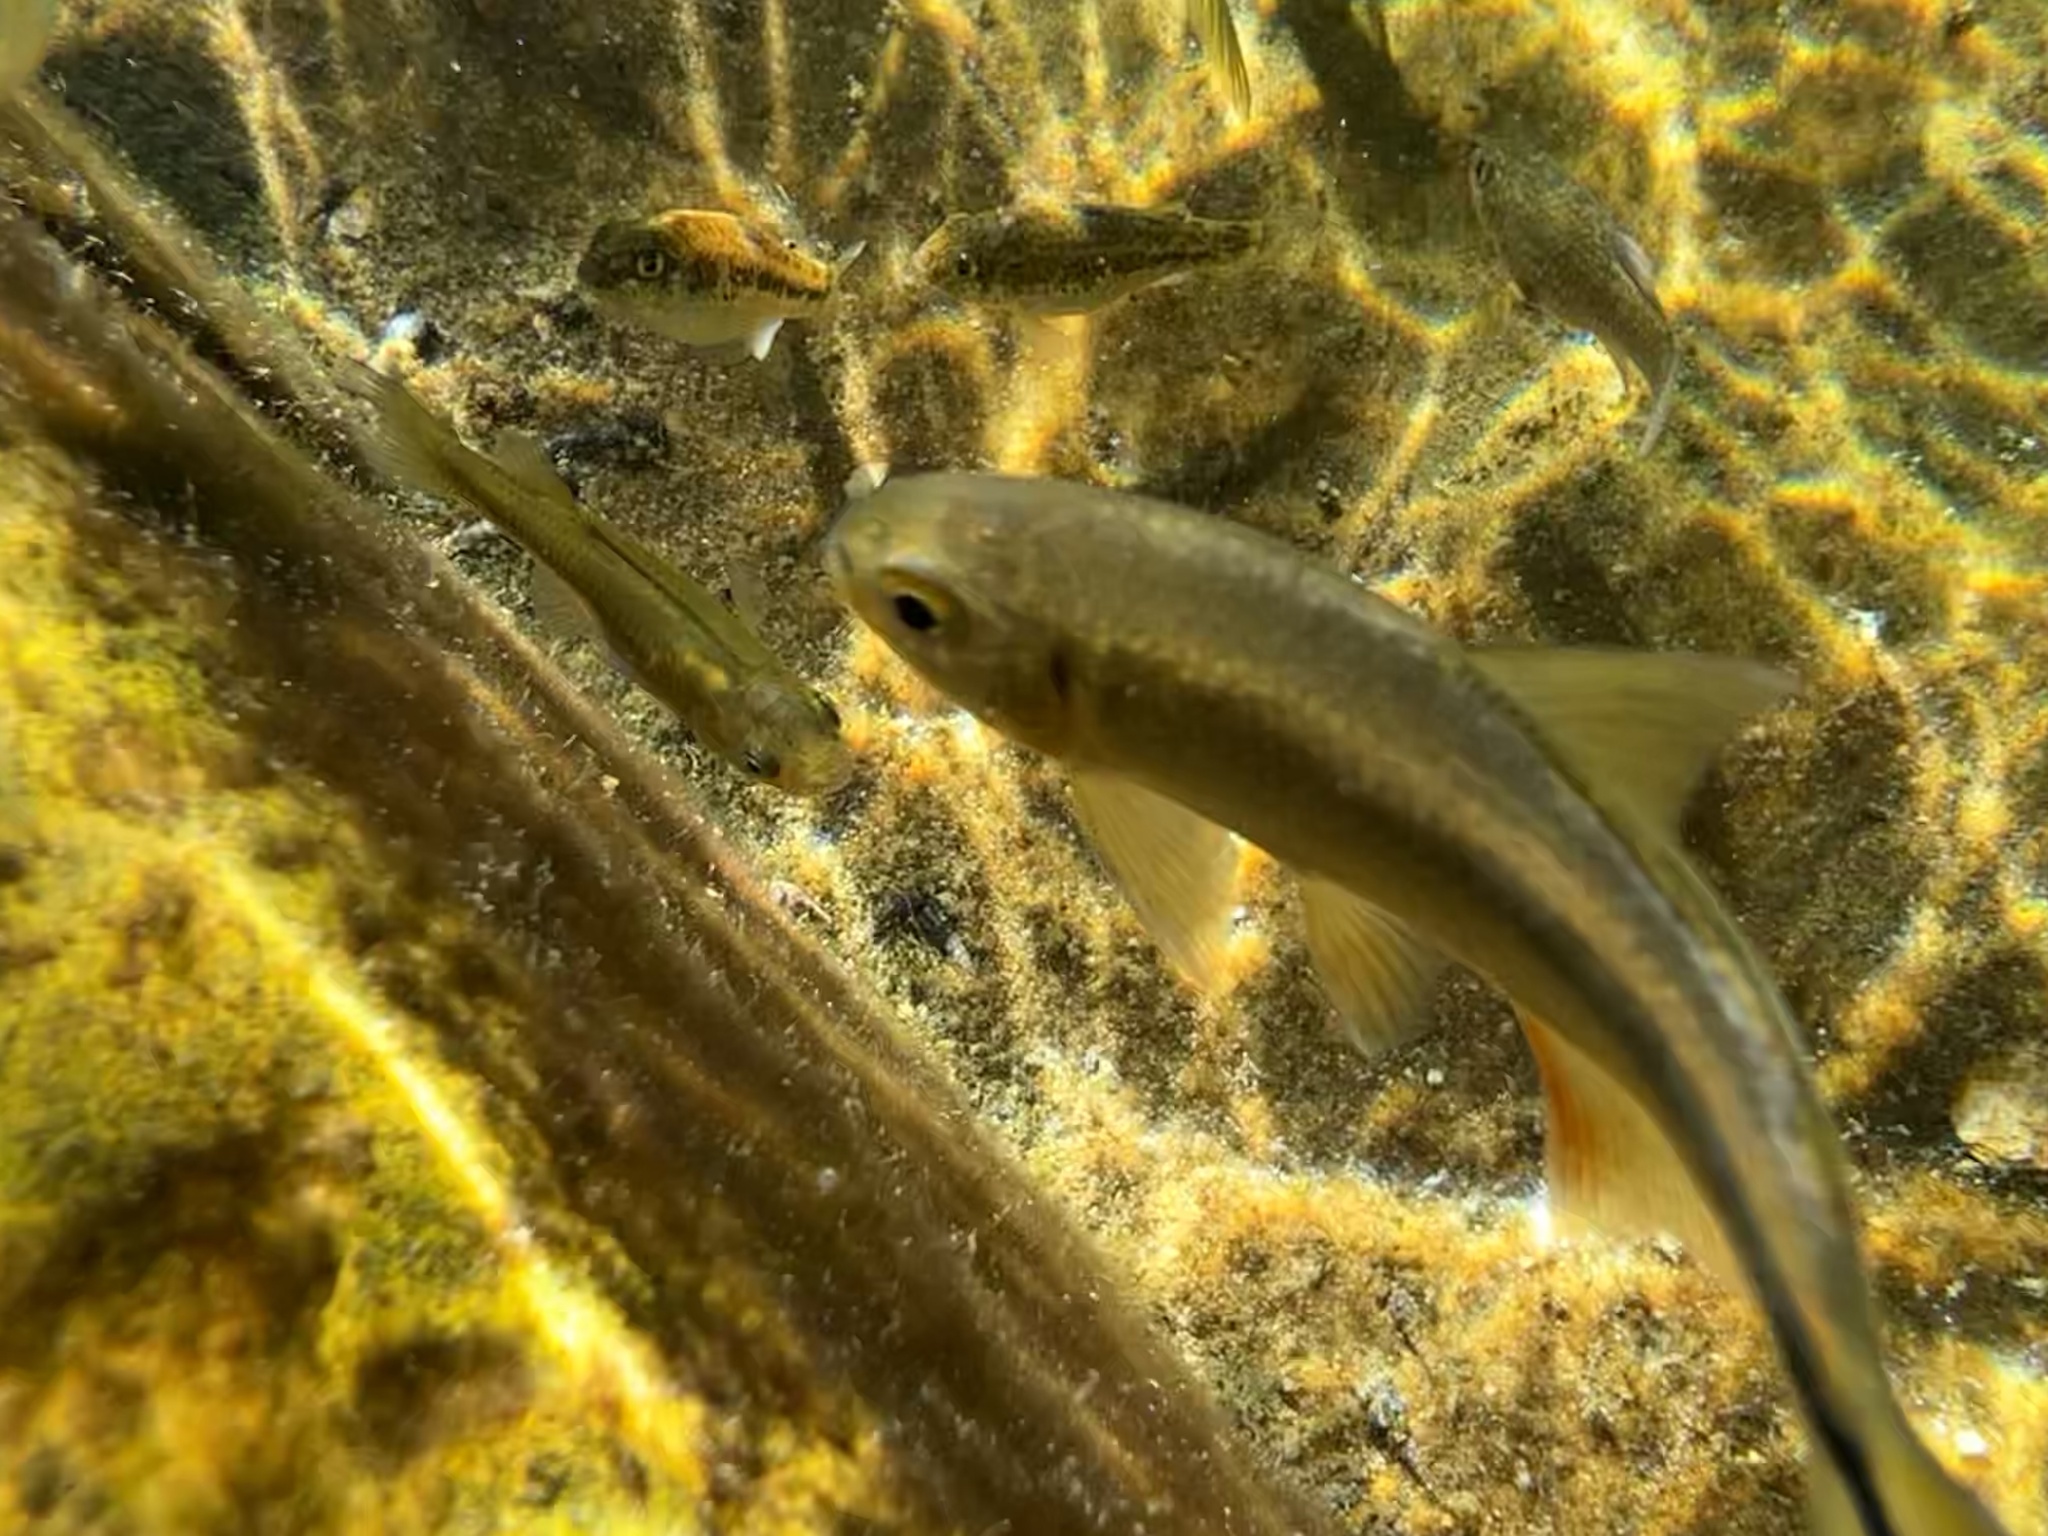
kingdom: Animalia
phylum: Chordata
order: Cyprinodontiformes
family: Cyprinodontidae
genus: Cyprinodon
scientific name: Cyprinodon elegans
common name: Comanche springs pupfish
